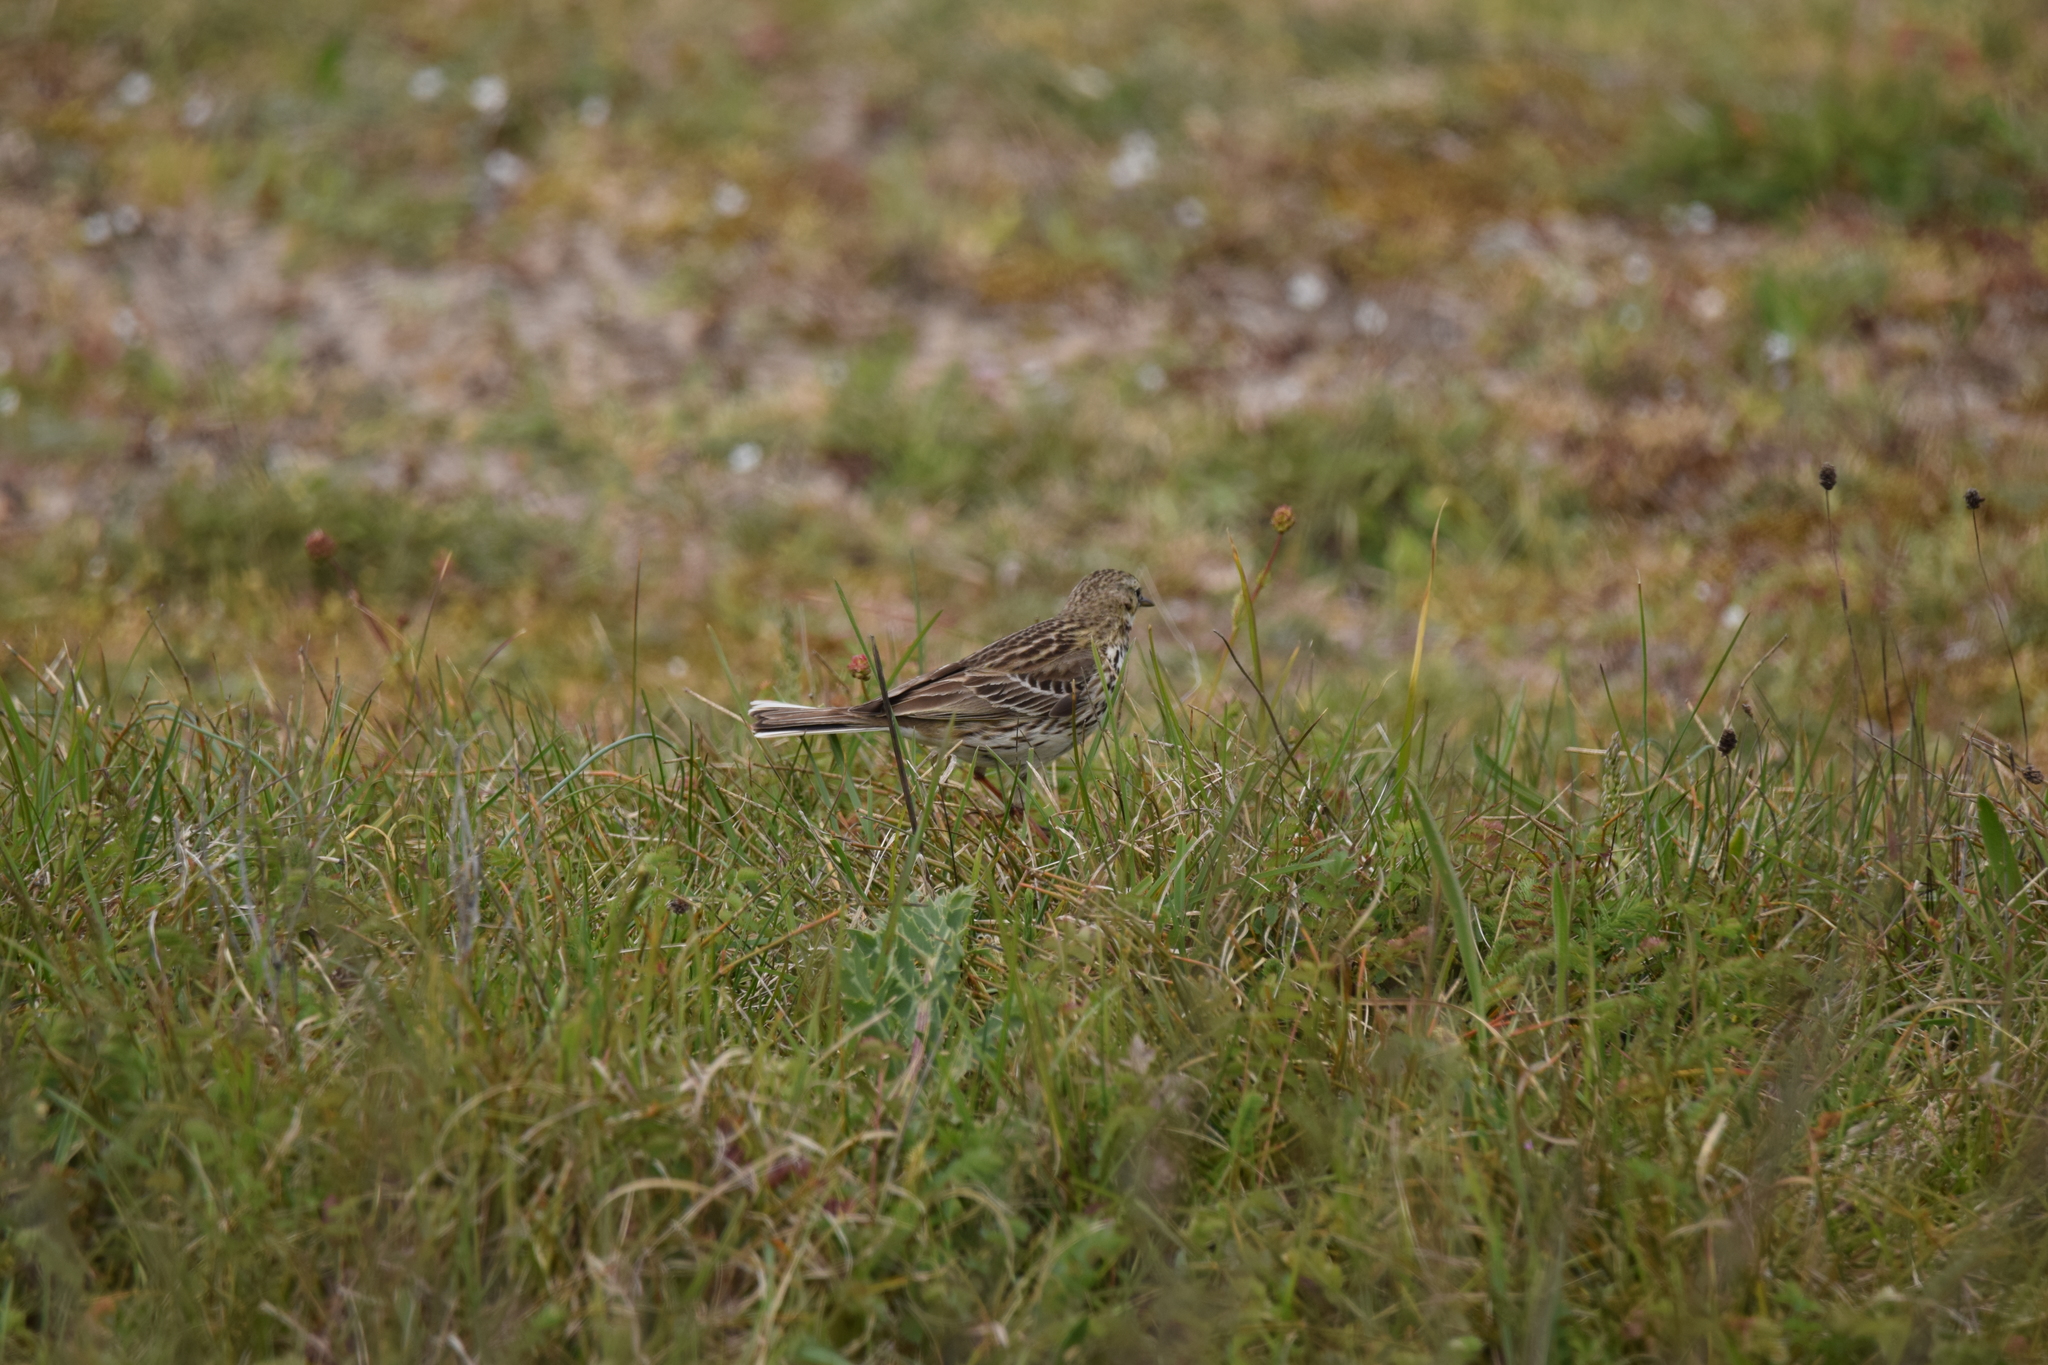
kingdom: Animalia
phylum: Chordata
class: Aves
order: Passeriformes
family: Motacillidae
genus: Anthus
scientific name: Anthus pratensis
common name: Meadow pipit
